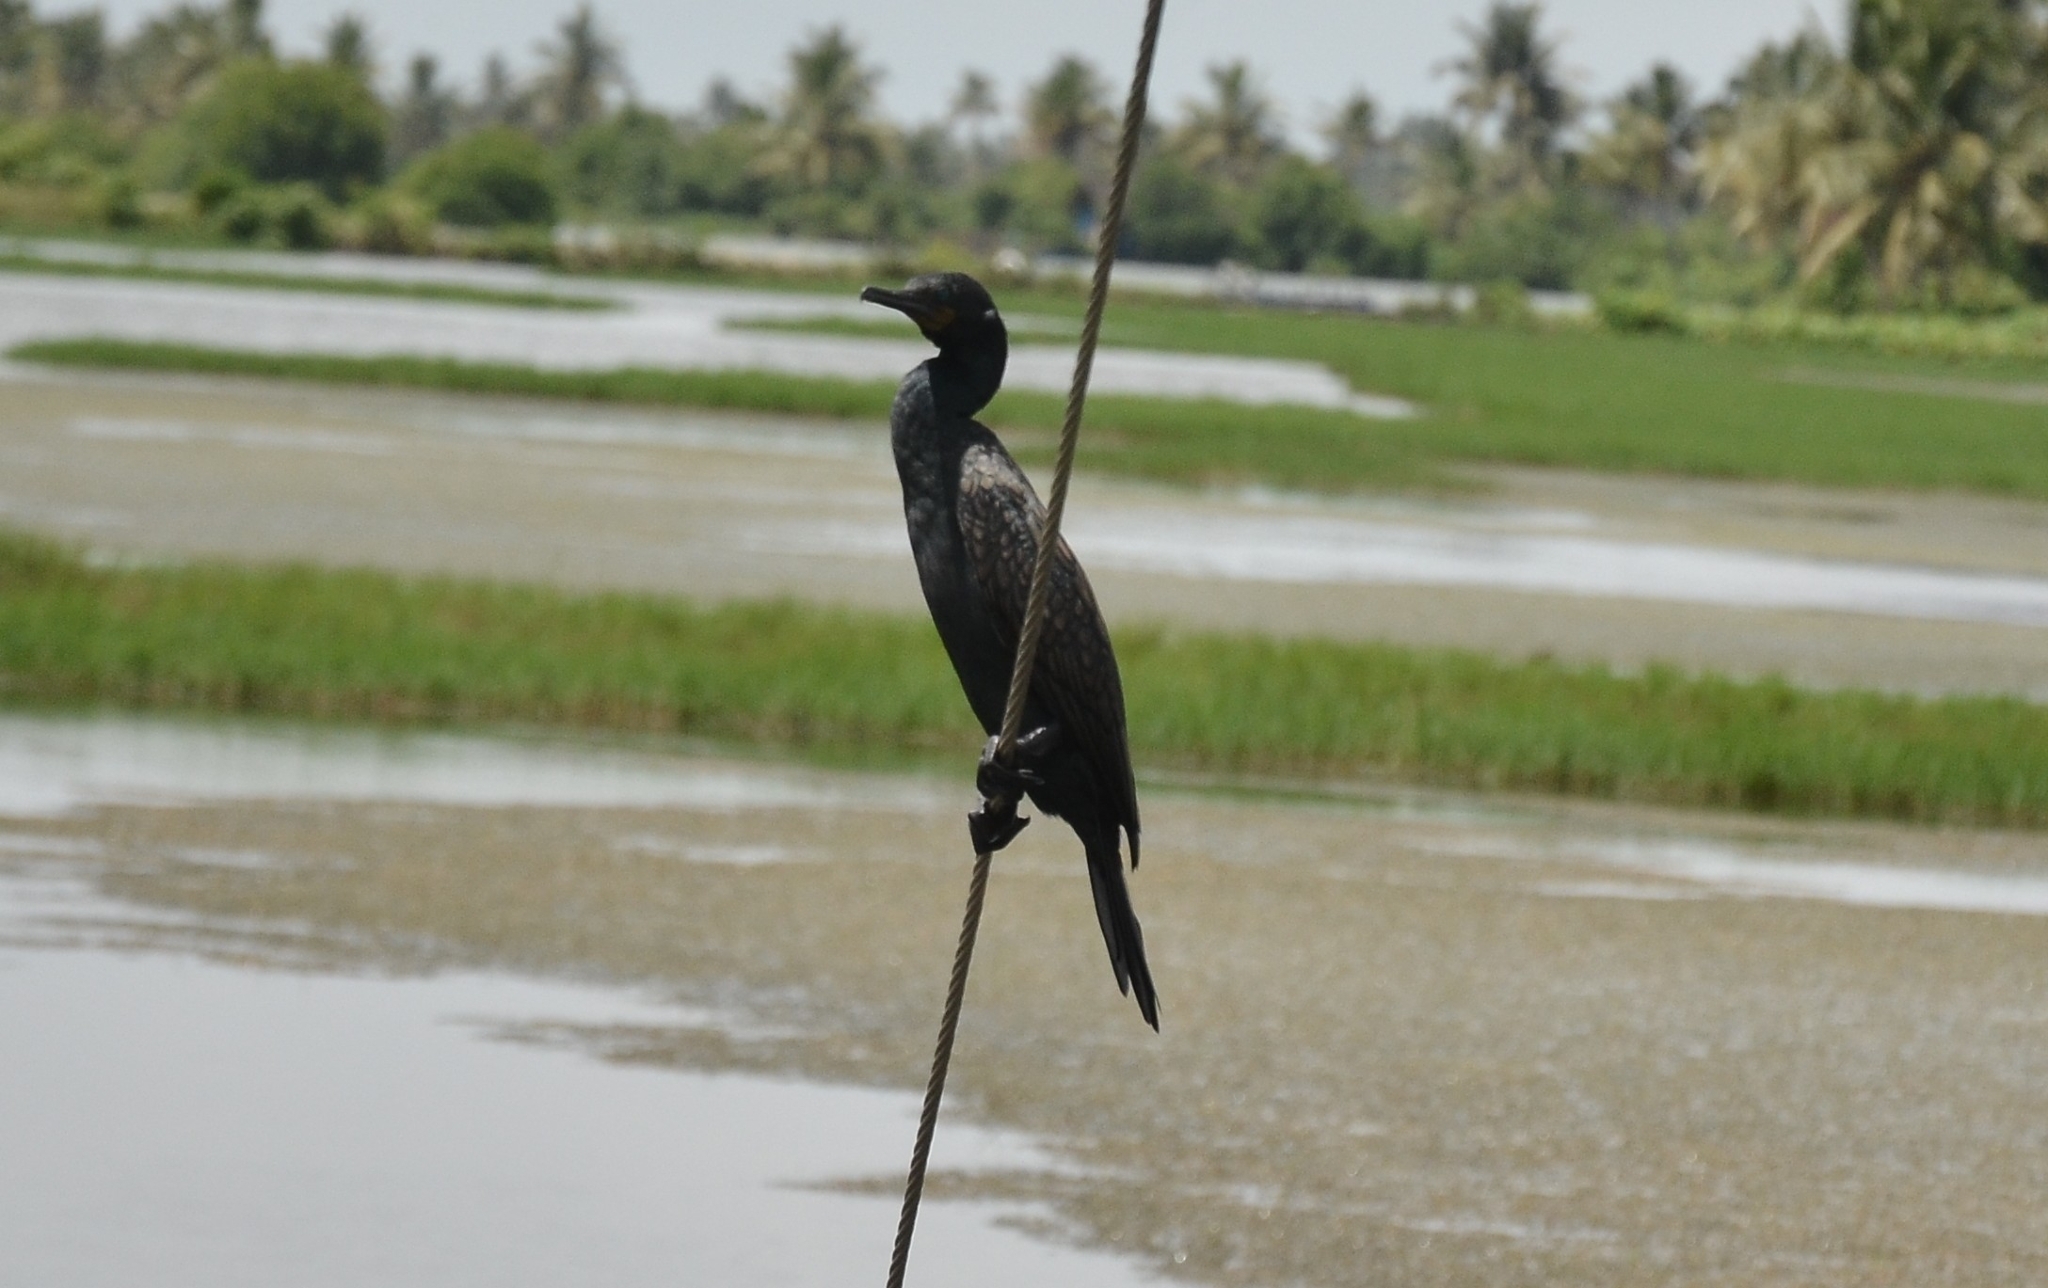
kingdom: Animalia
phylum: Chordata
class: Aves
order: Suliformes
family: Phalacrocoracidae
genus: Phalacrocorax
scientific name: Phalacrocorax fuscicollis
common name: Indian cormorant
